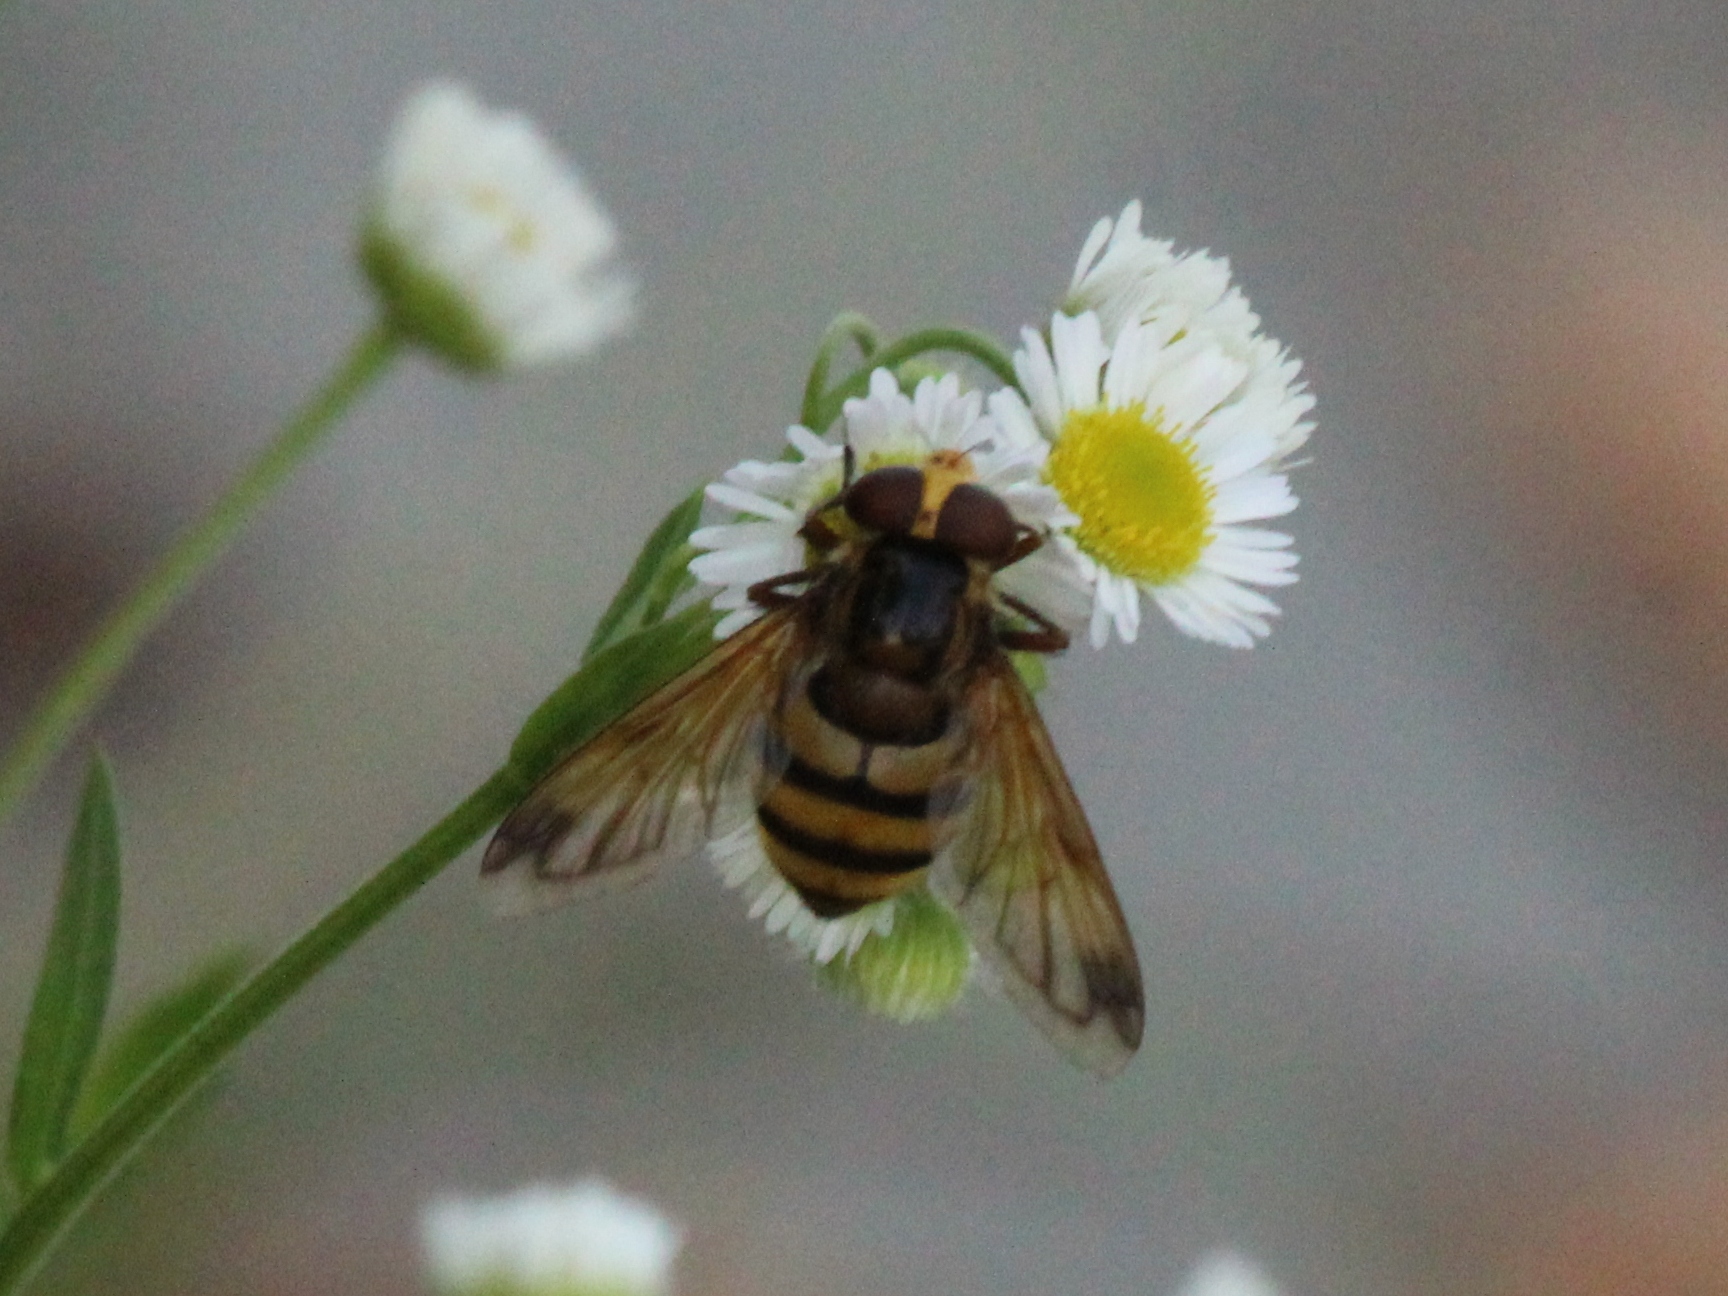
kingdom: Animalia
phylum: Arthropoda
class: Insecta
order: Diptera
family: Syrphidae
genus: Volucella
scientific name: Volucella inanis
